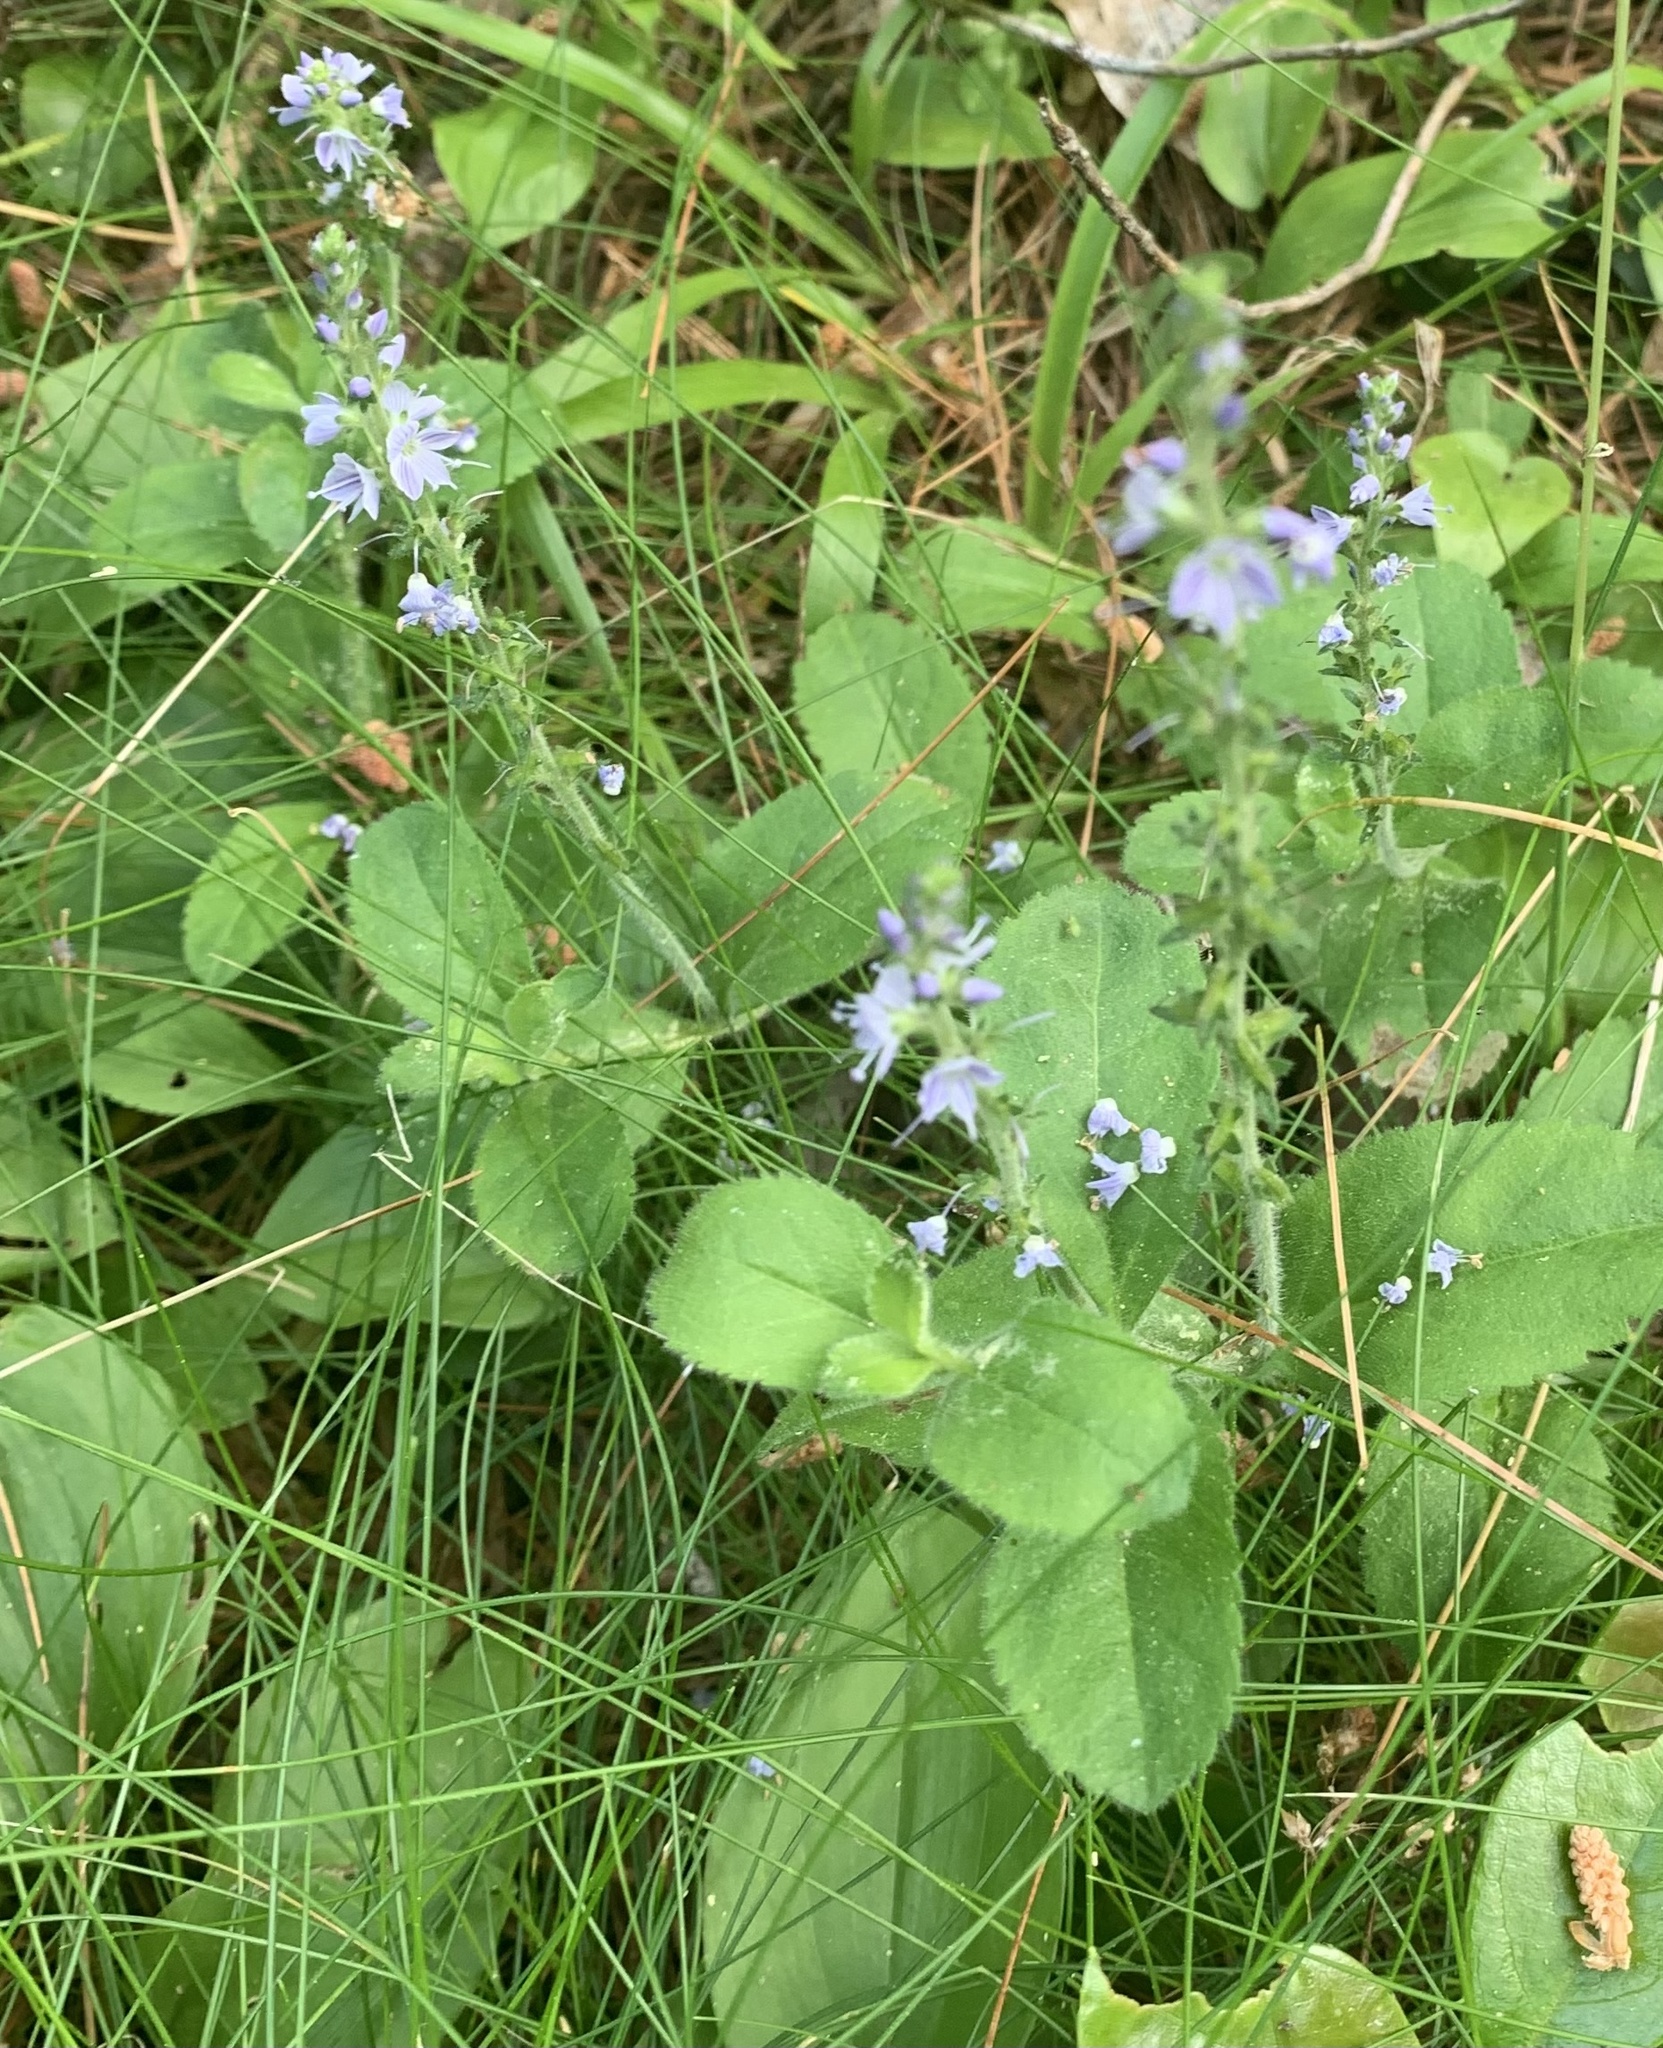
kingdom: Plantae
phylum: Tracheophyta
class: Magnoliopsida
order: Lamiales
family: Plantaginaceae
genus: Veronica
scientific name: Veronica officinalis
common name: Common speedwell
